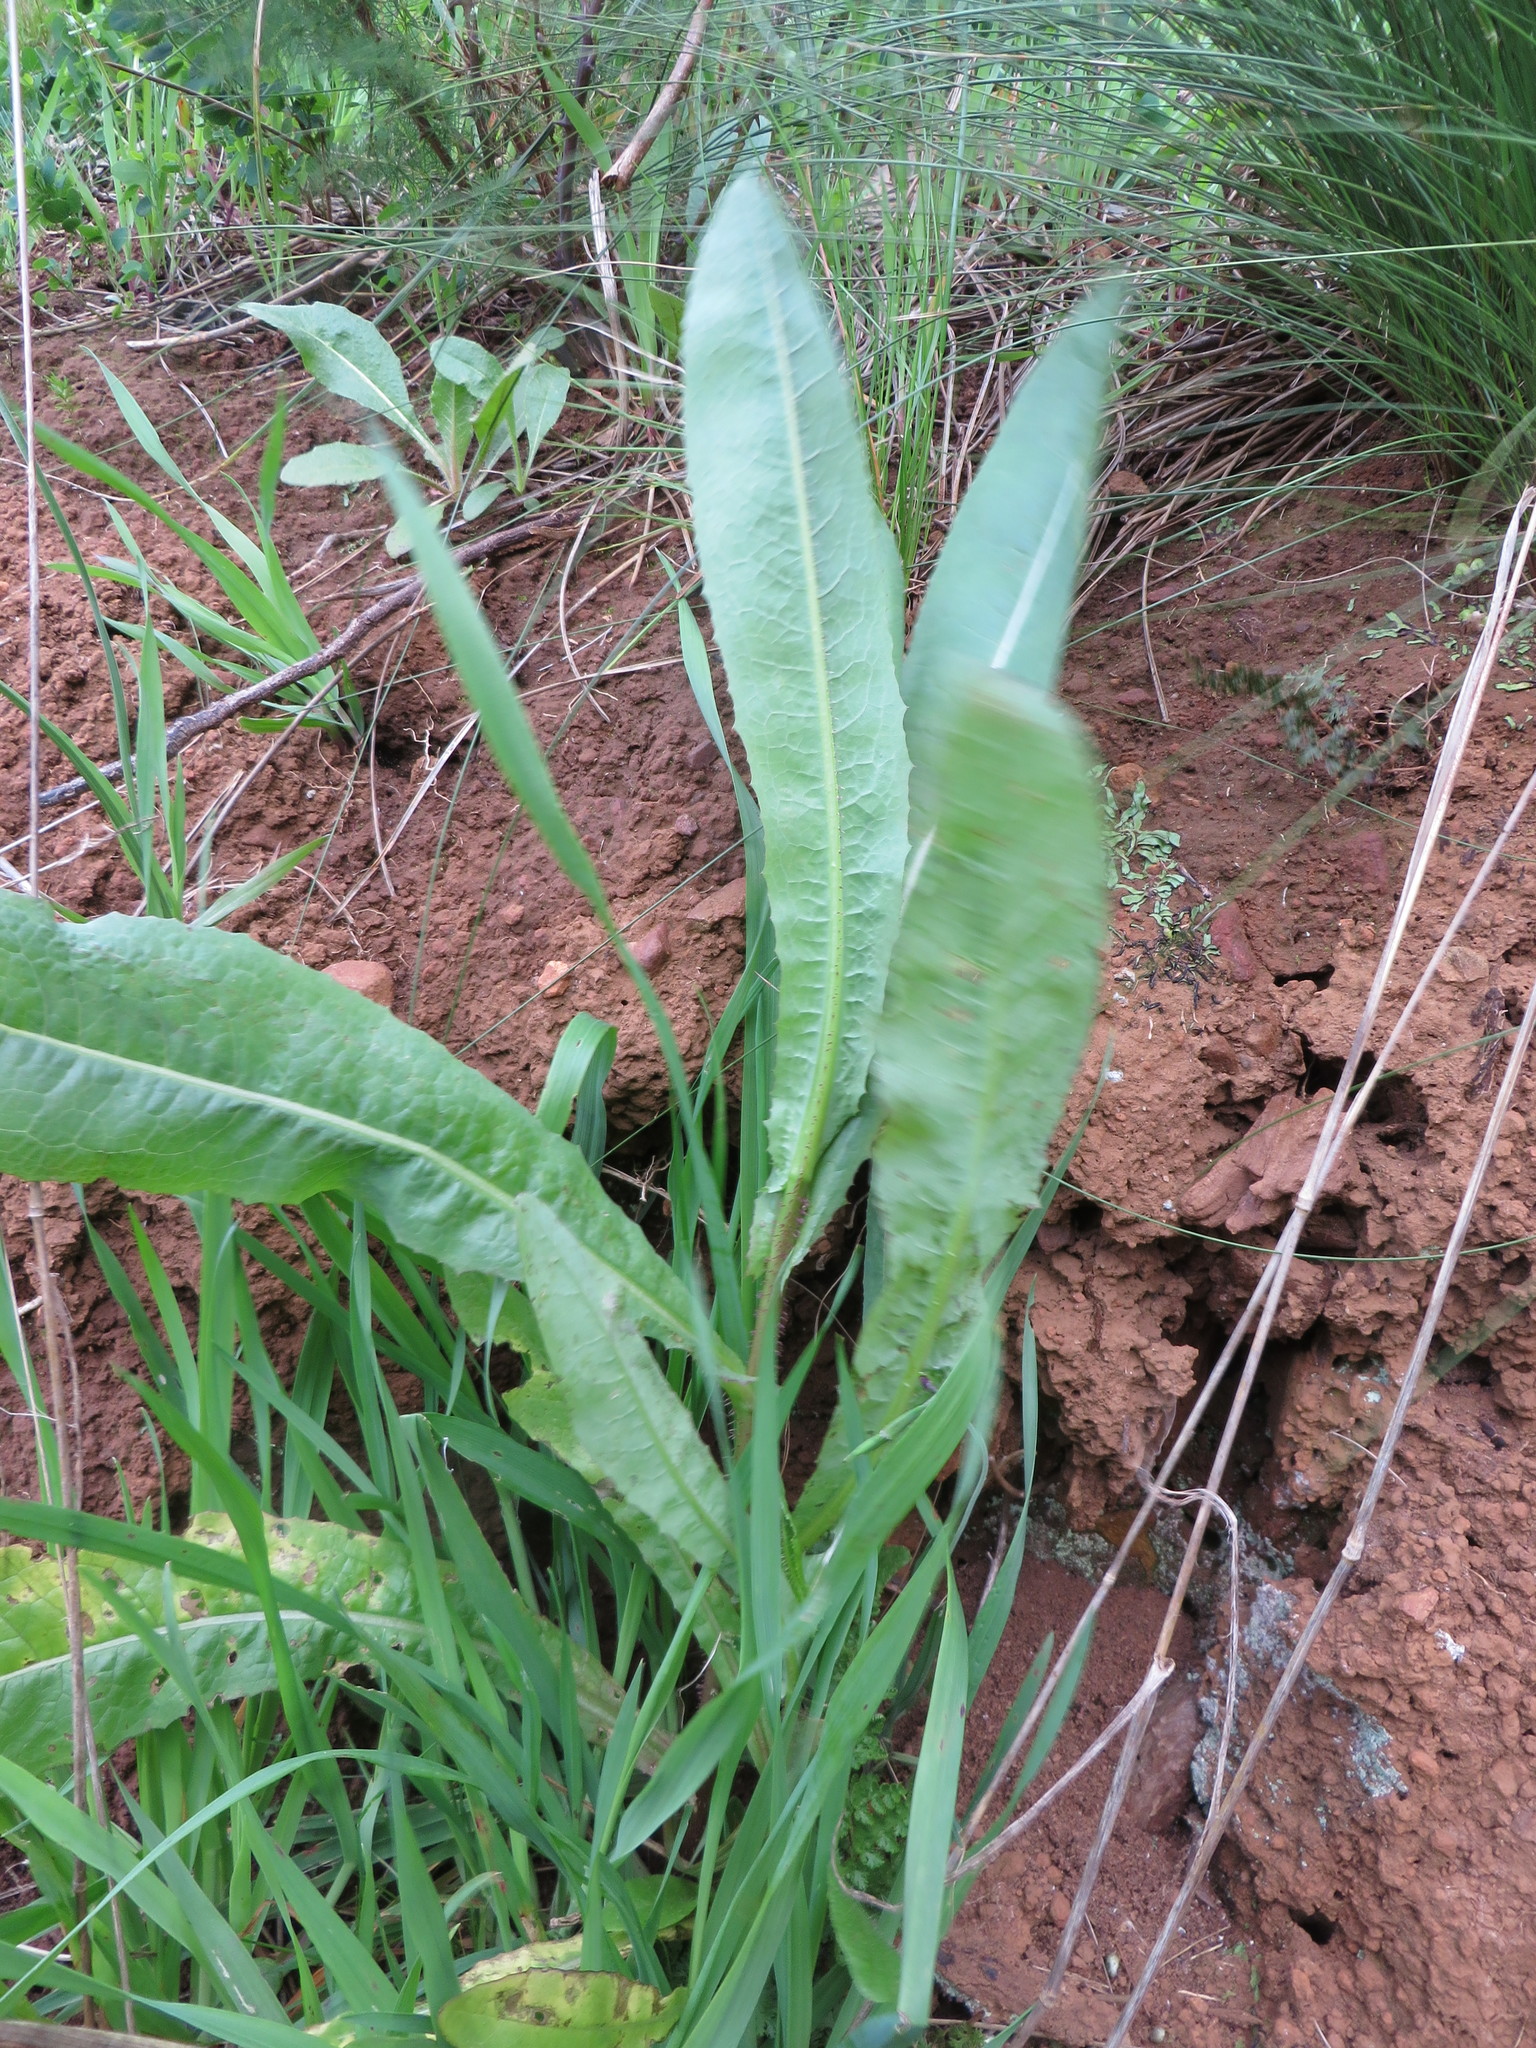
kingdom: Plantae
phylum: Tracheophyta
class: Magnoliopsida
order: Asterales
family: Asteraceae
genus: Lactuca
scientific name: Lactuca serriola
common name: Prickly lettuce
